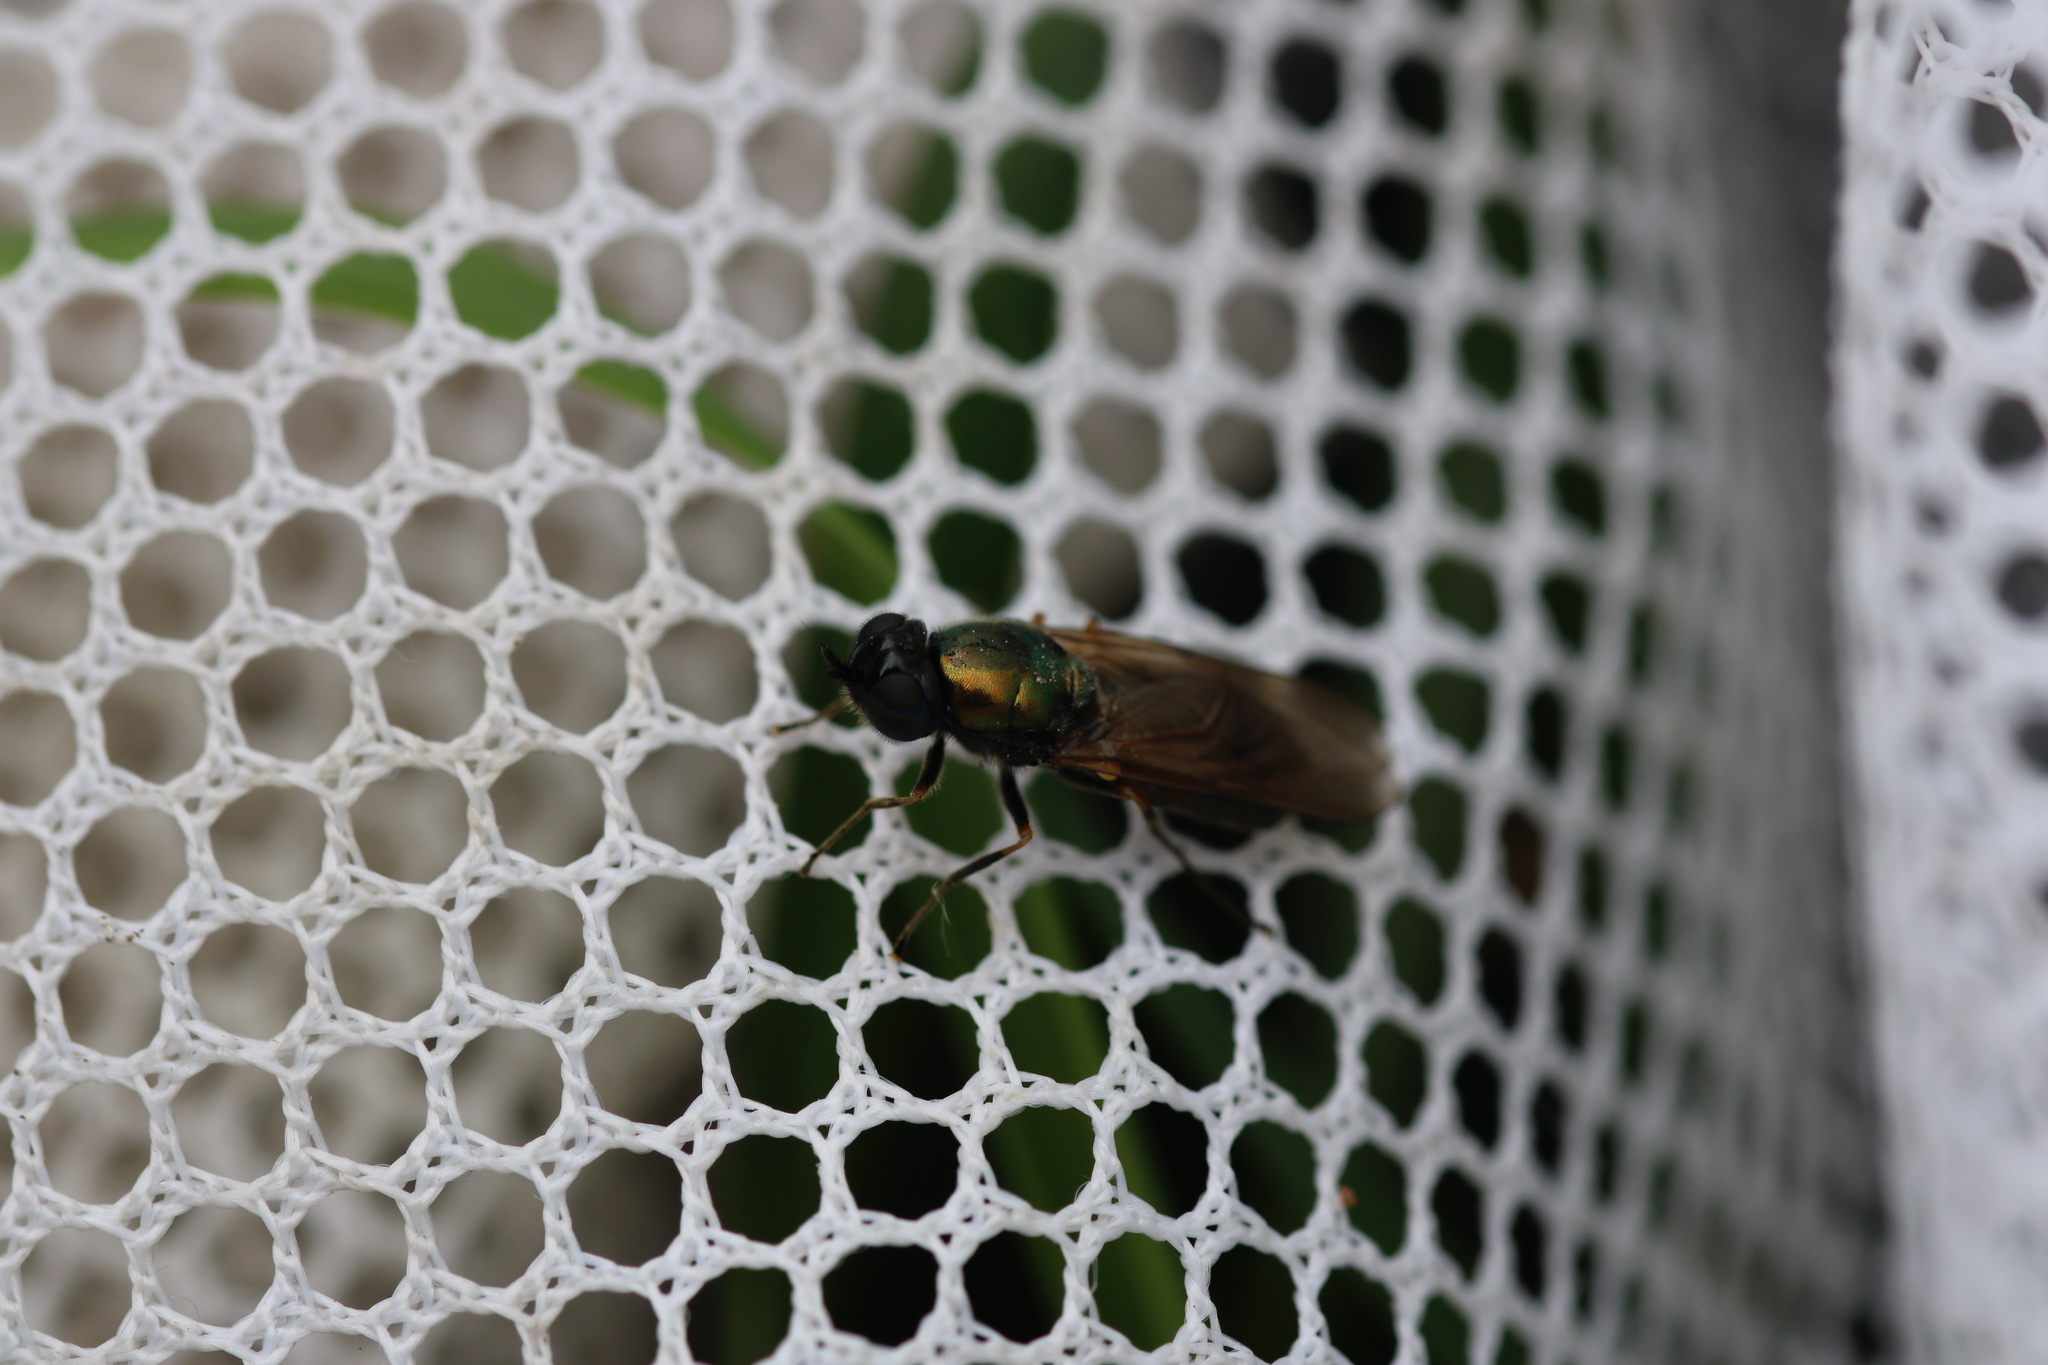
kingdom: Animalia
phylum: Arthropoda
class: Insecta
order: Diptera
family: Stratiomyidae
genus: Chloromyia
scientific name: Chloromyia formosa
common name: Soldier fly
